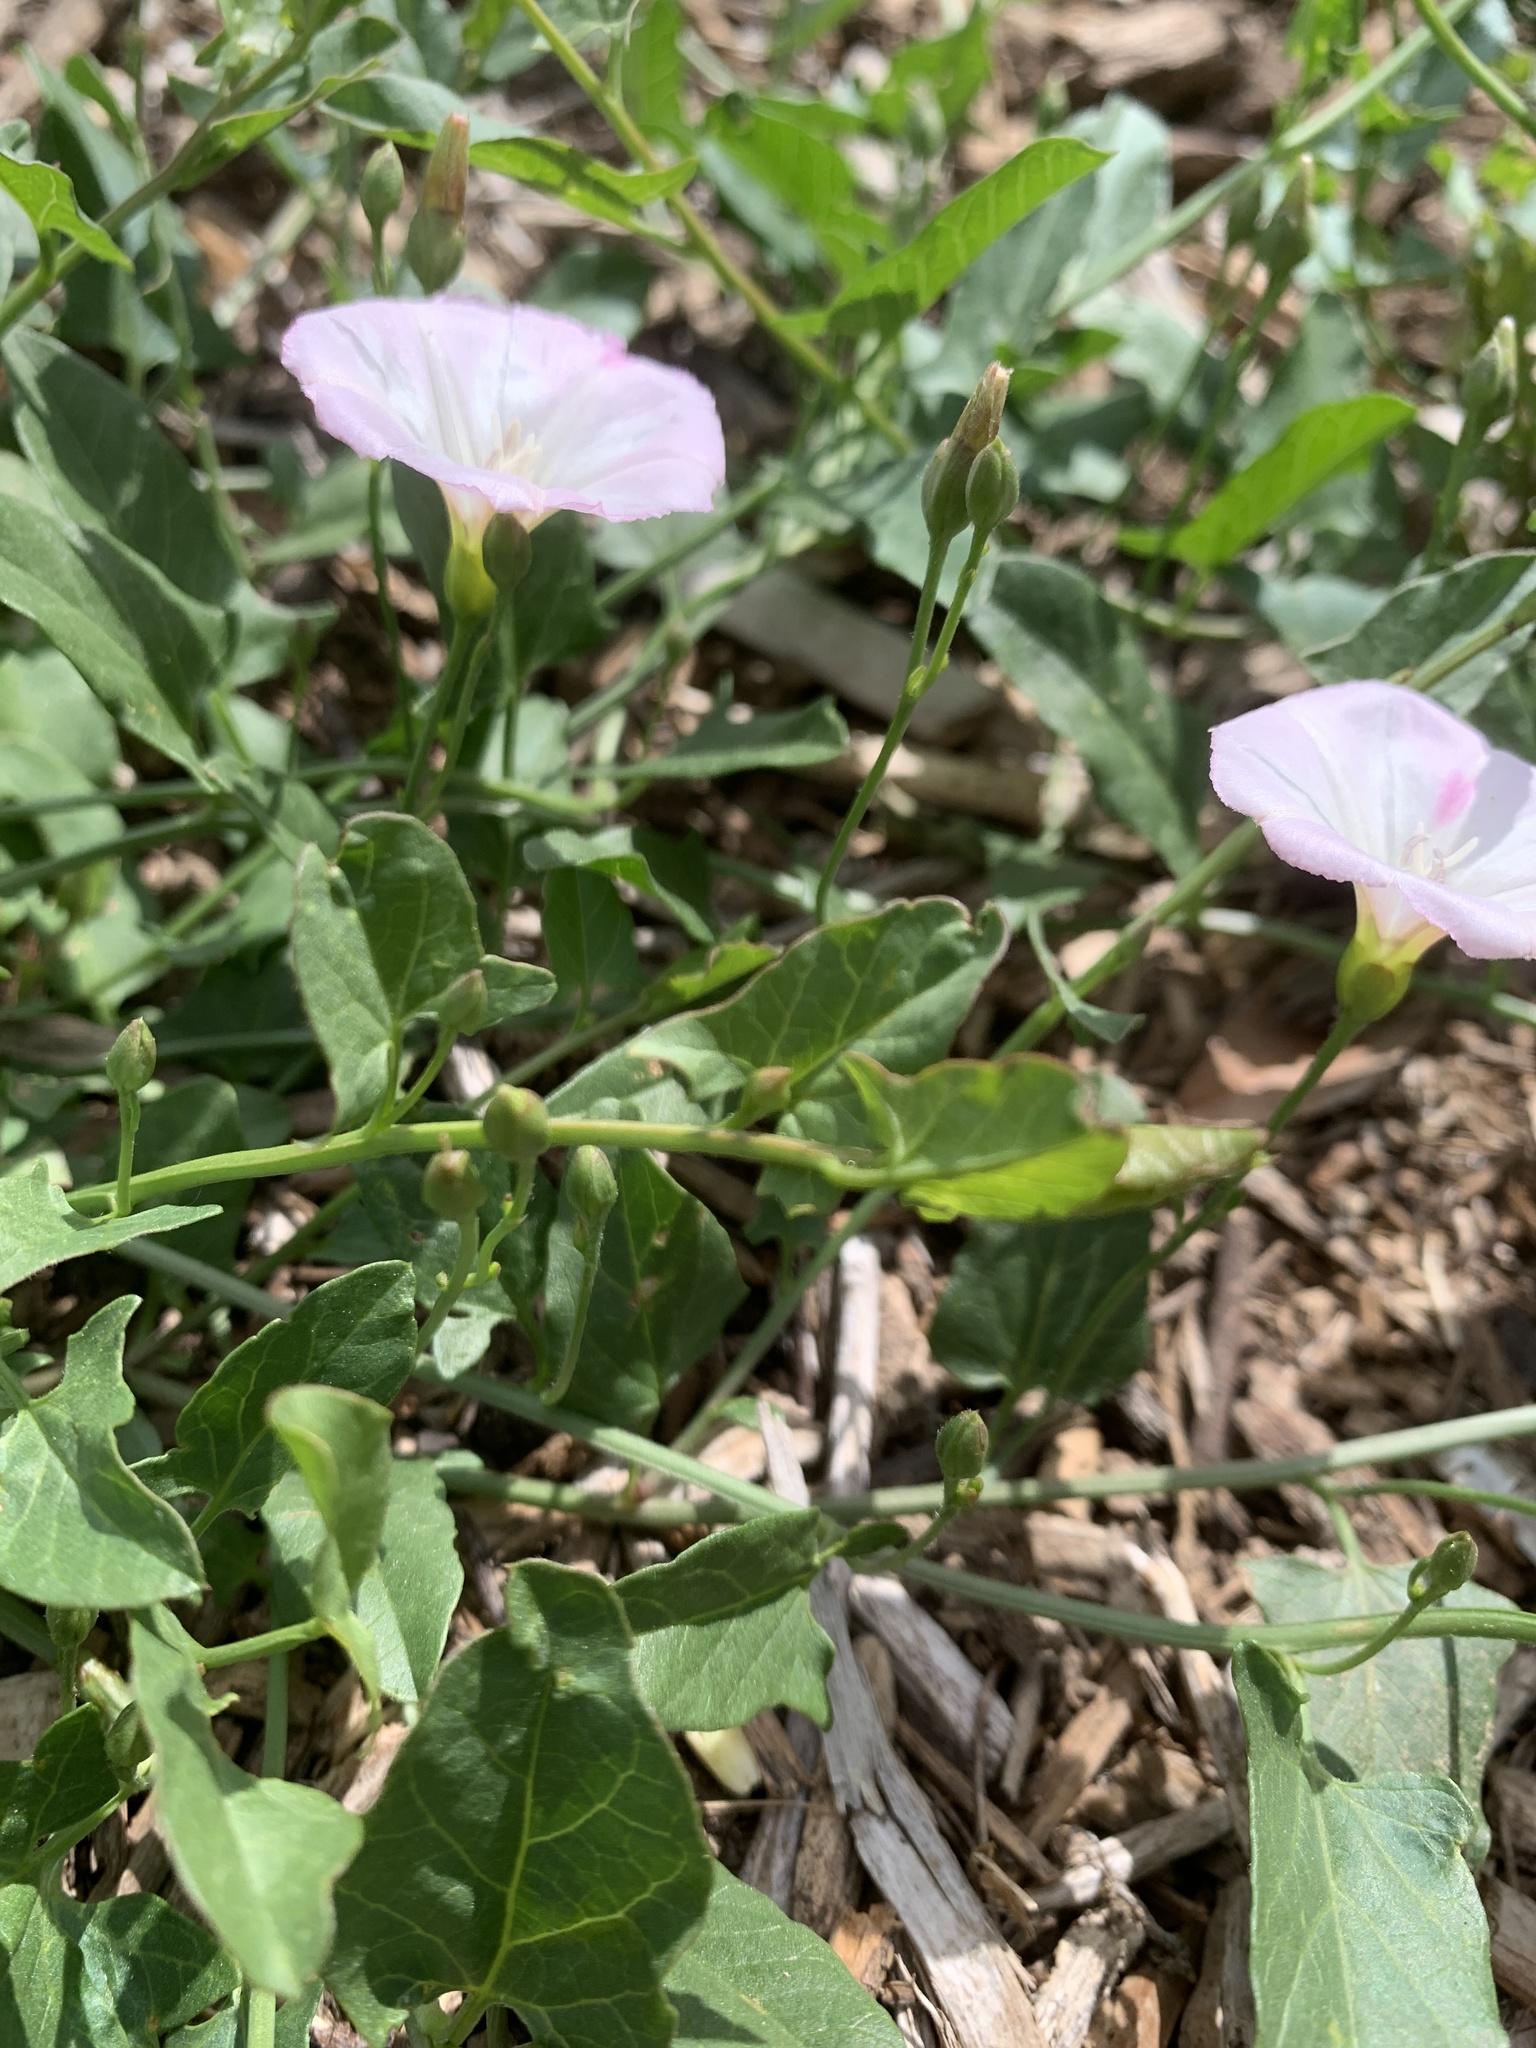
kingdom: Plantae
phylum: Tracheophyta
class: Magnoliopsida
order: Solanales
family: Convolvulaceae
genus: Convolvulus
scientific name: Convolvulus arvensis
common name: Field bindweed
